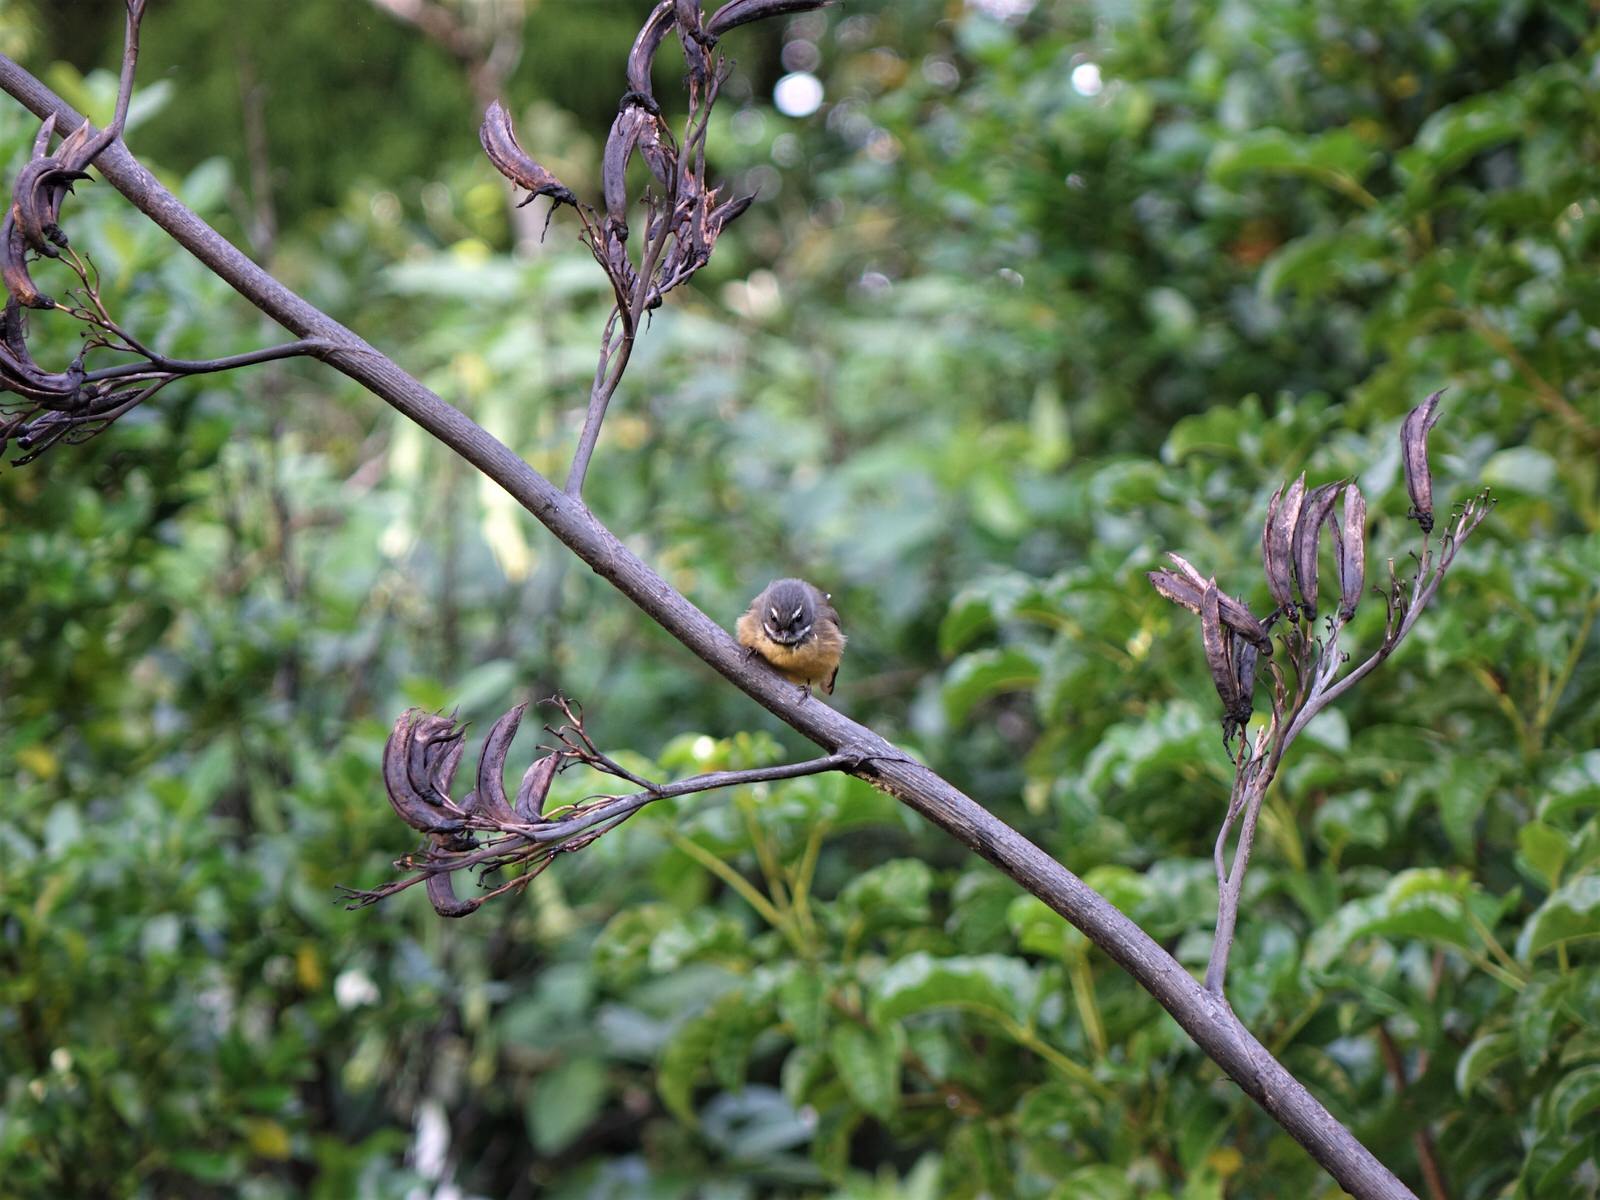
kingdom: Animalia
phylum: Chordata
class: Aves
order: Passeriformes
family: Rhipiduridae
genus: Rhipidura
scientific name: Rhipidura fuliginosa
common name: New zealand fantail
